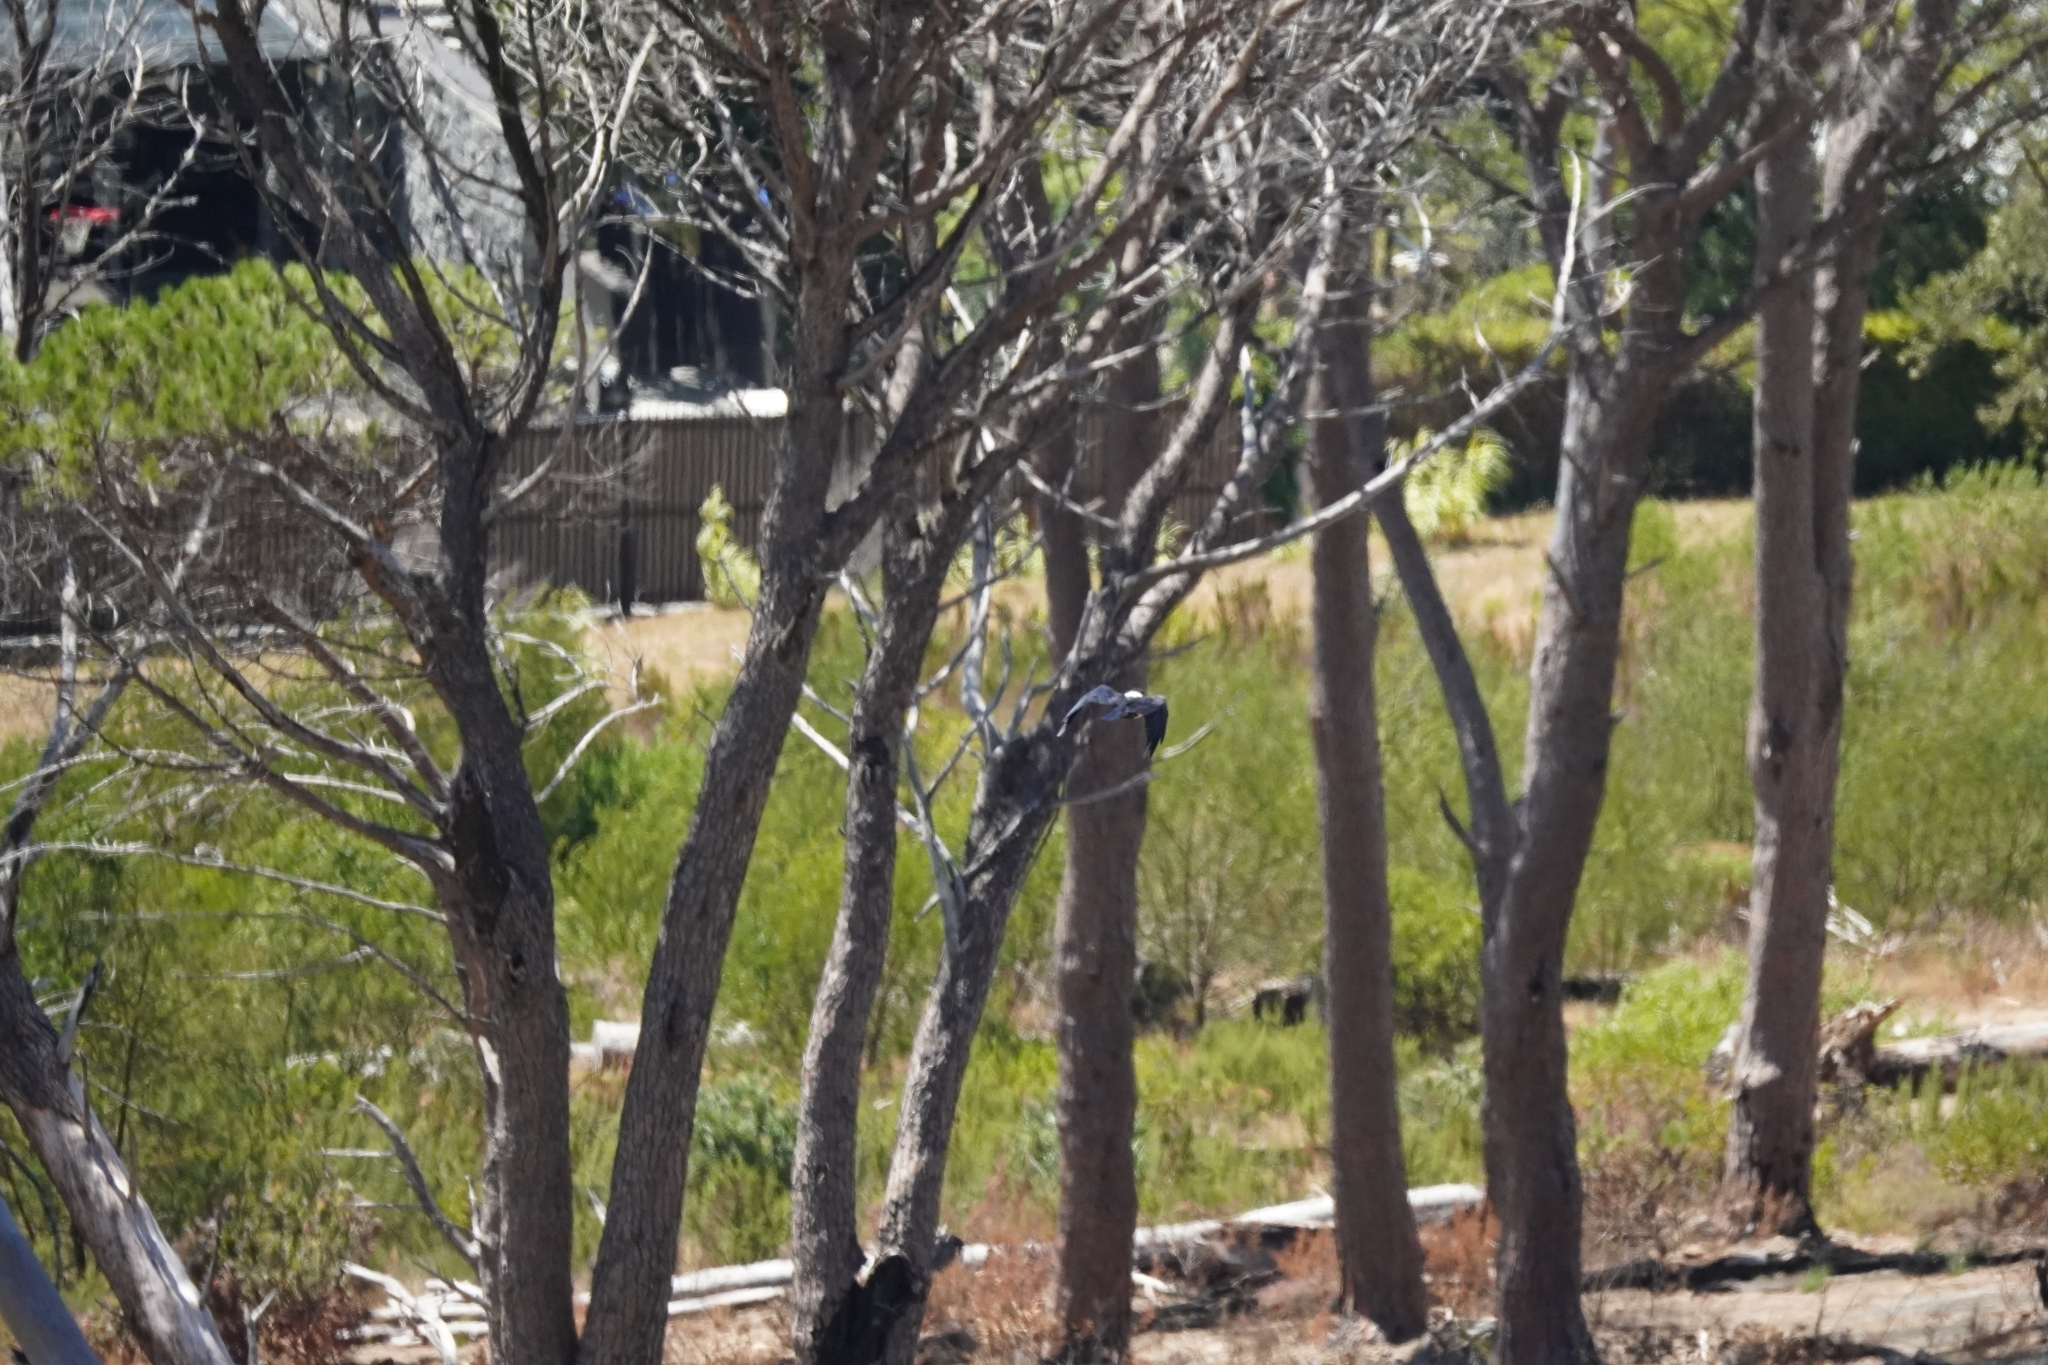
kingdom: Animalia
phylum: Chordata
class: Aves
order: Passeriformes
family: Corvidae
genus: Corvus
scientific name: Corvus albus
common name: Pied crow
